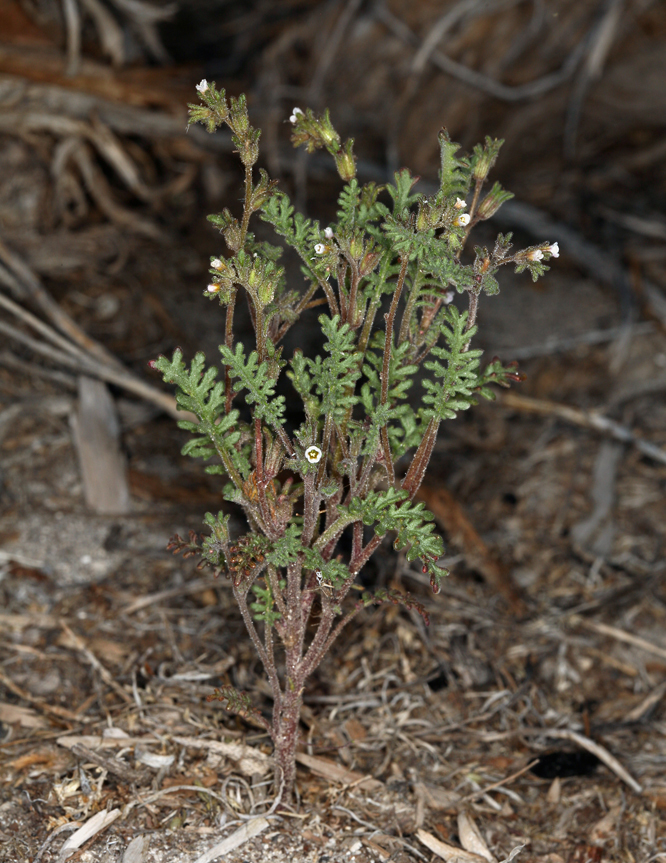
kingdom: Plantae
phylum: Tracheophyta
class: Magnoliopsida
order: Boraginales
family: Hydrophyllaceae
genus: Phacelia
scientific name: Phacelia glandulifera
